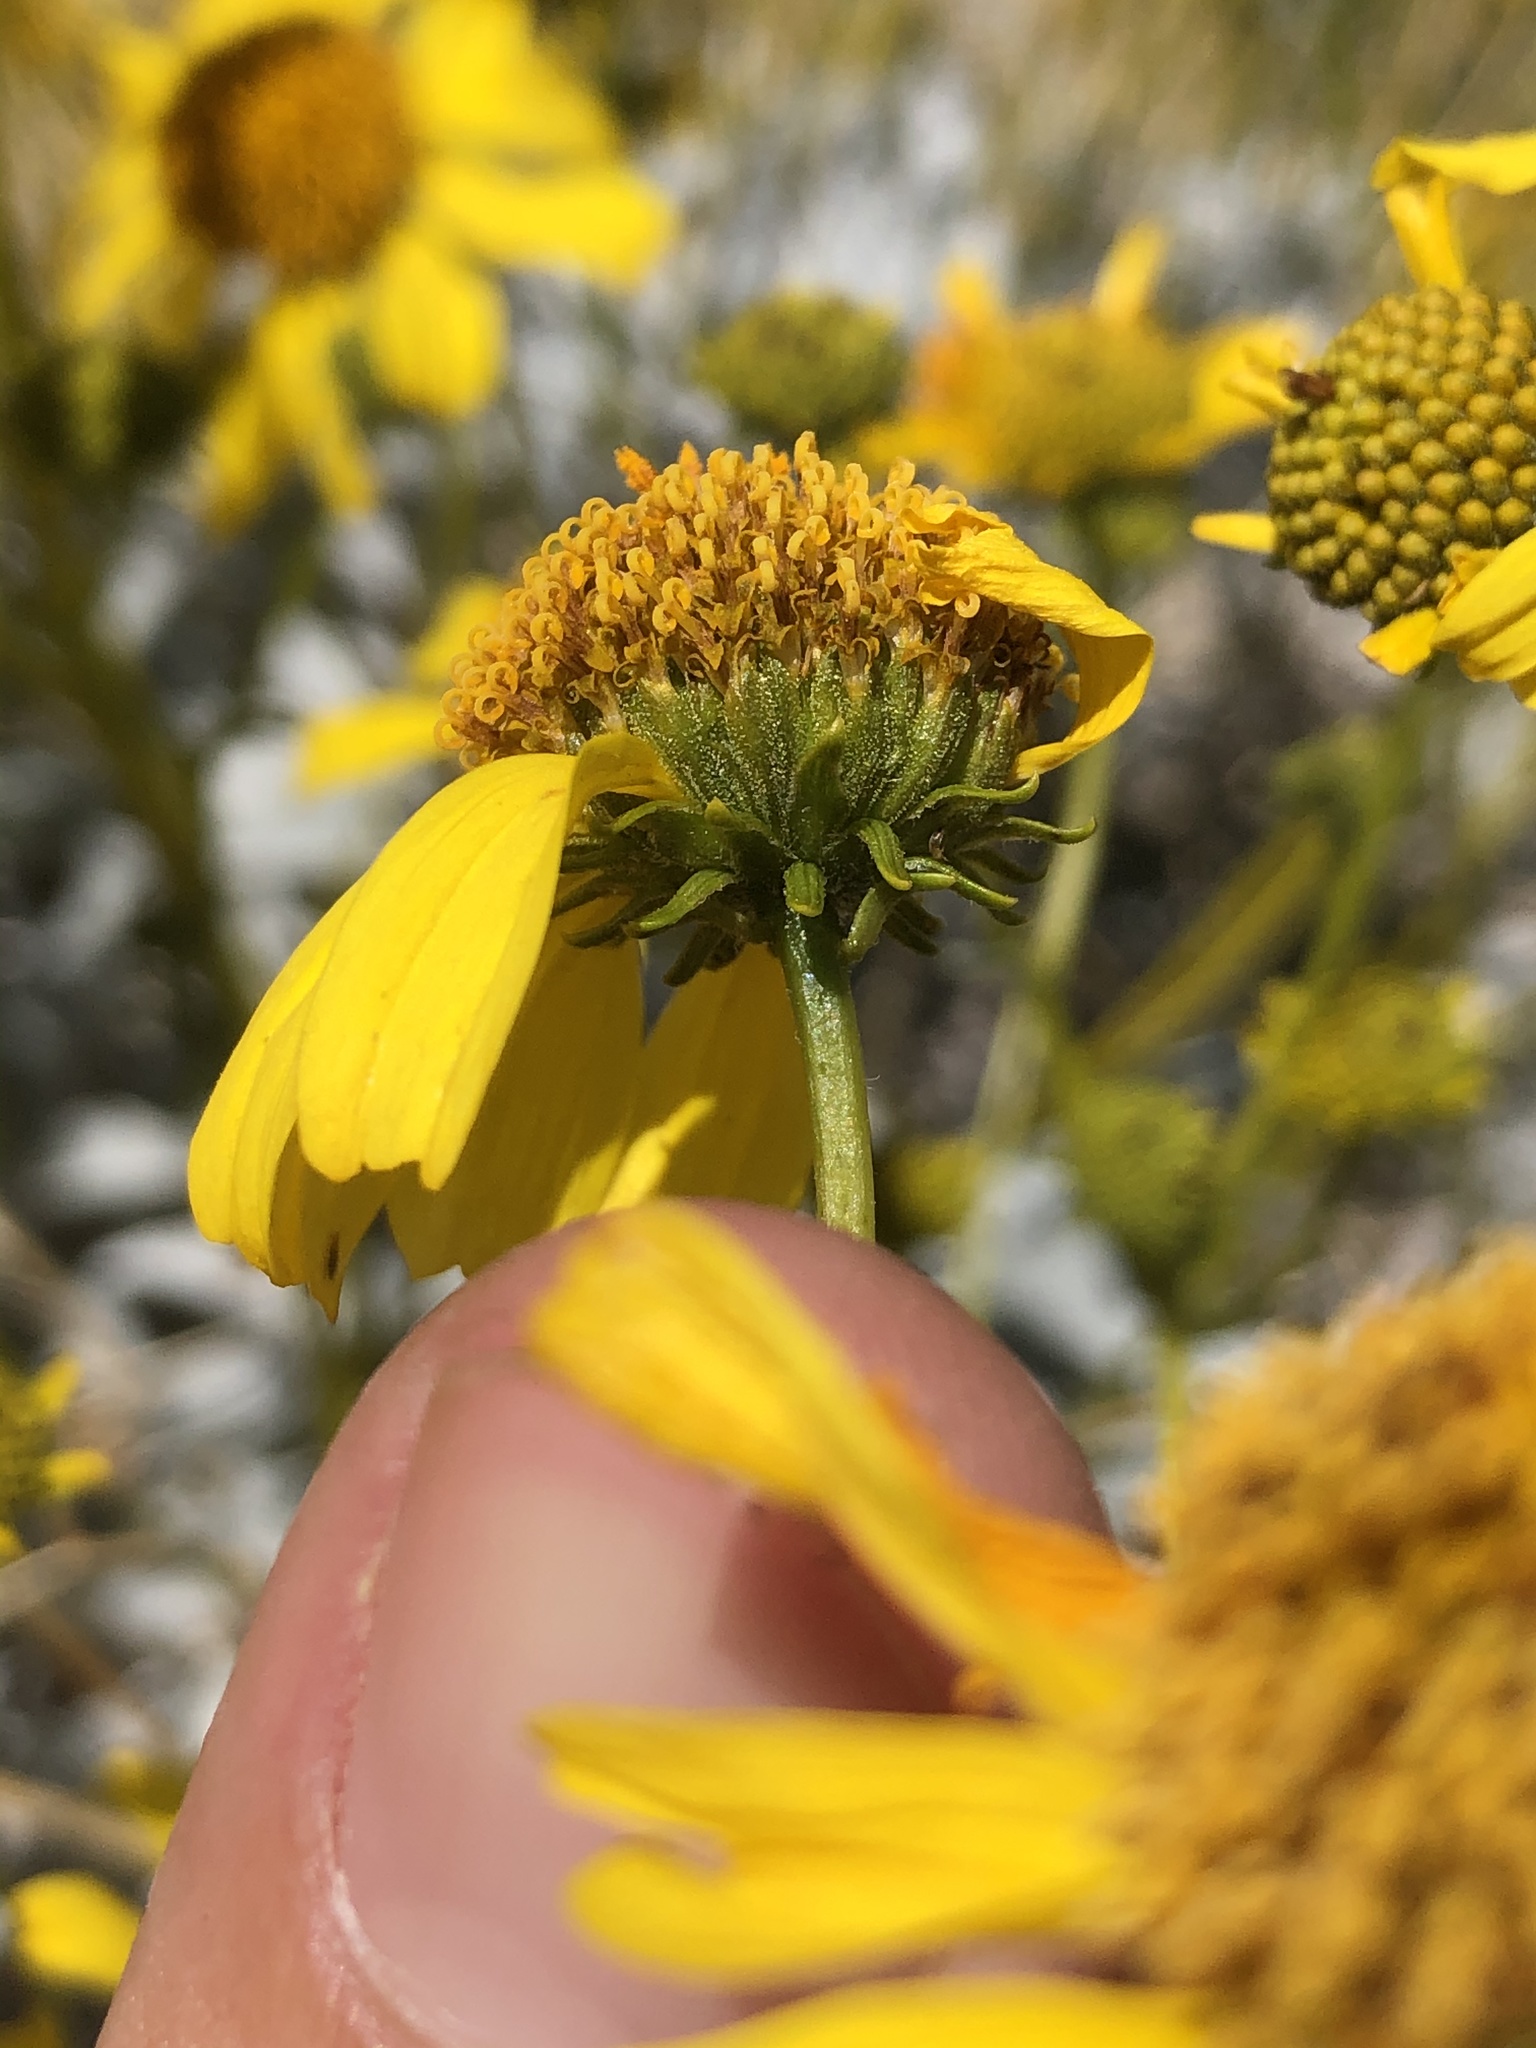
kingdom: Plantae
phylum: Tracheophyta
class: Magnoliopsida
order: Asterales
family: Asteraceae
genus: Encelia
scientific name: Encelia farinosa
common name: Brittlebush
